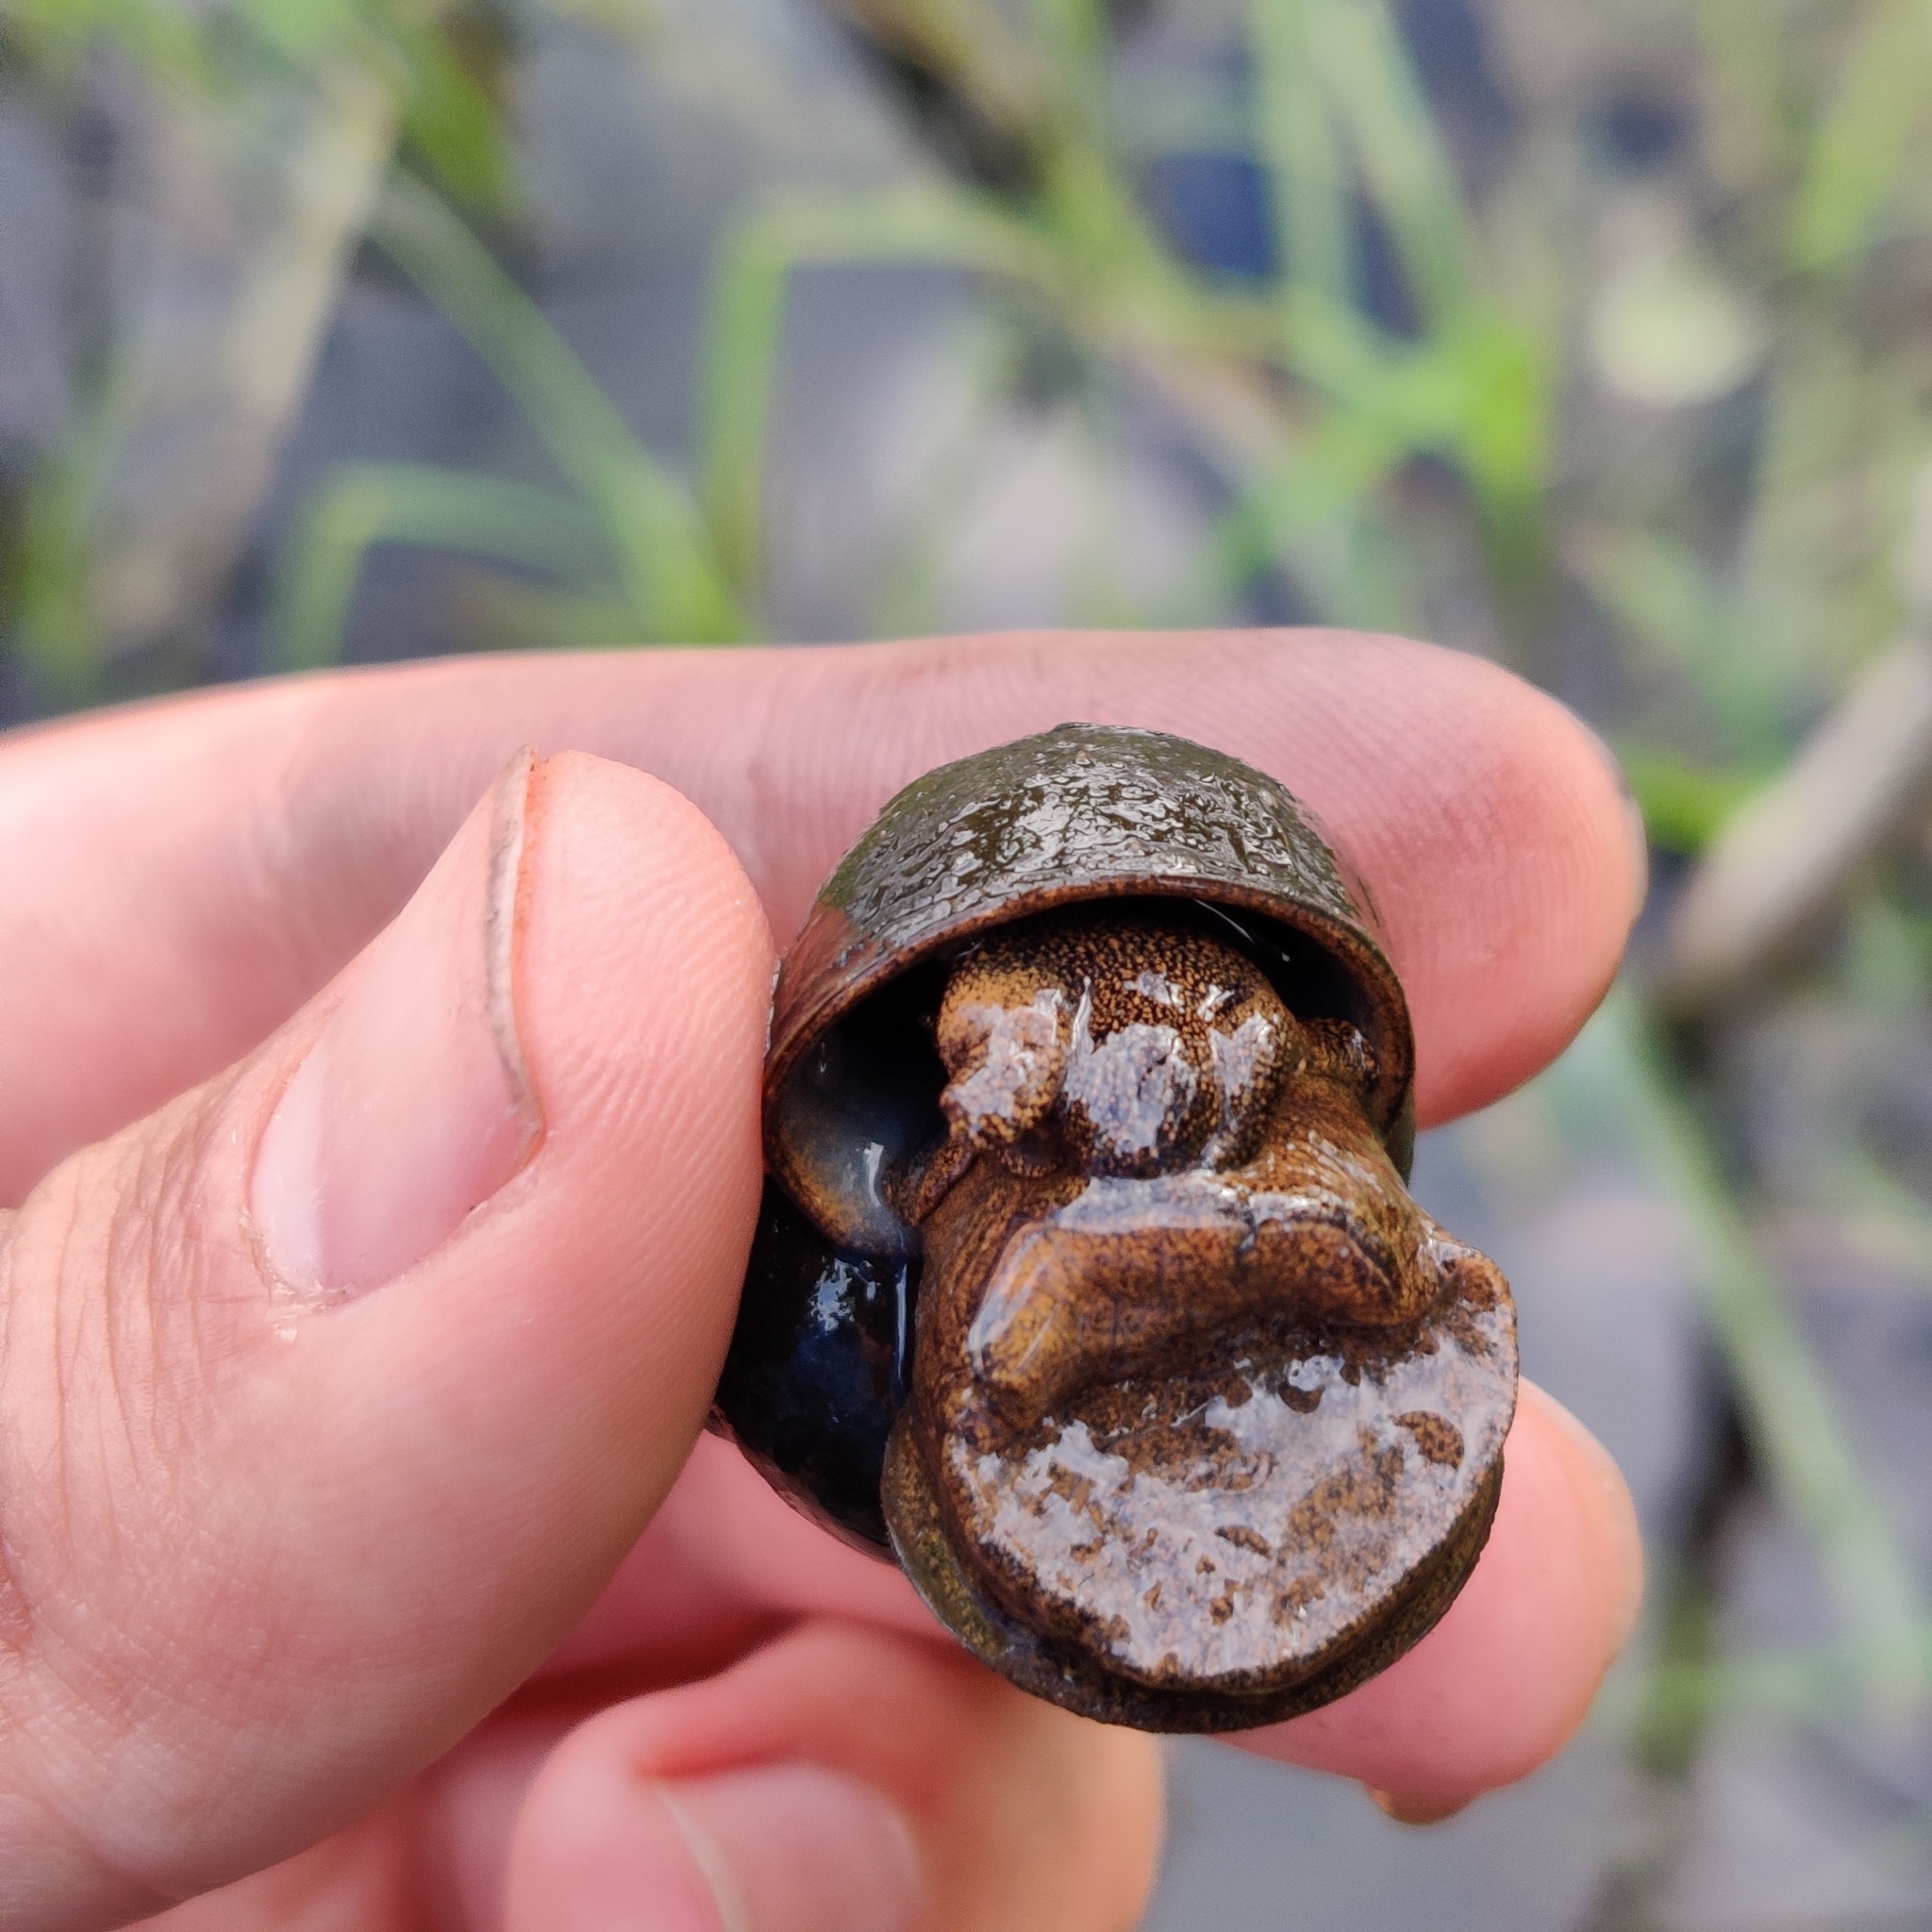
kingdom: Animalia
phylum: Mollusca
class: Gastropoda
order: Architaenioglossa
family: Viviparidae
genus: Viviparus
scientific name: Viviparus contectus
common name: Lister's river snail
